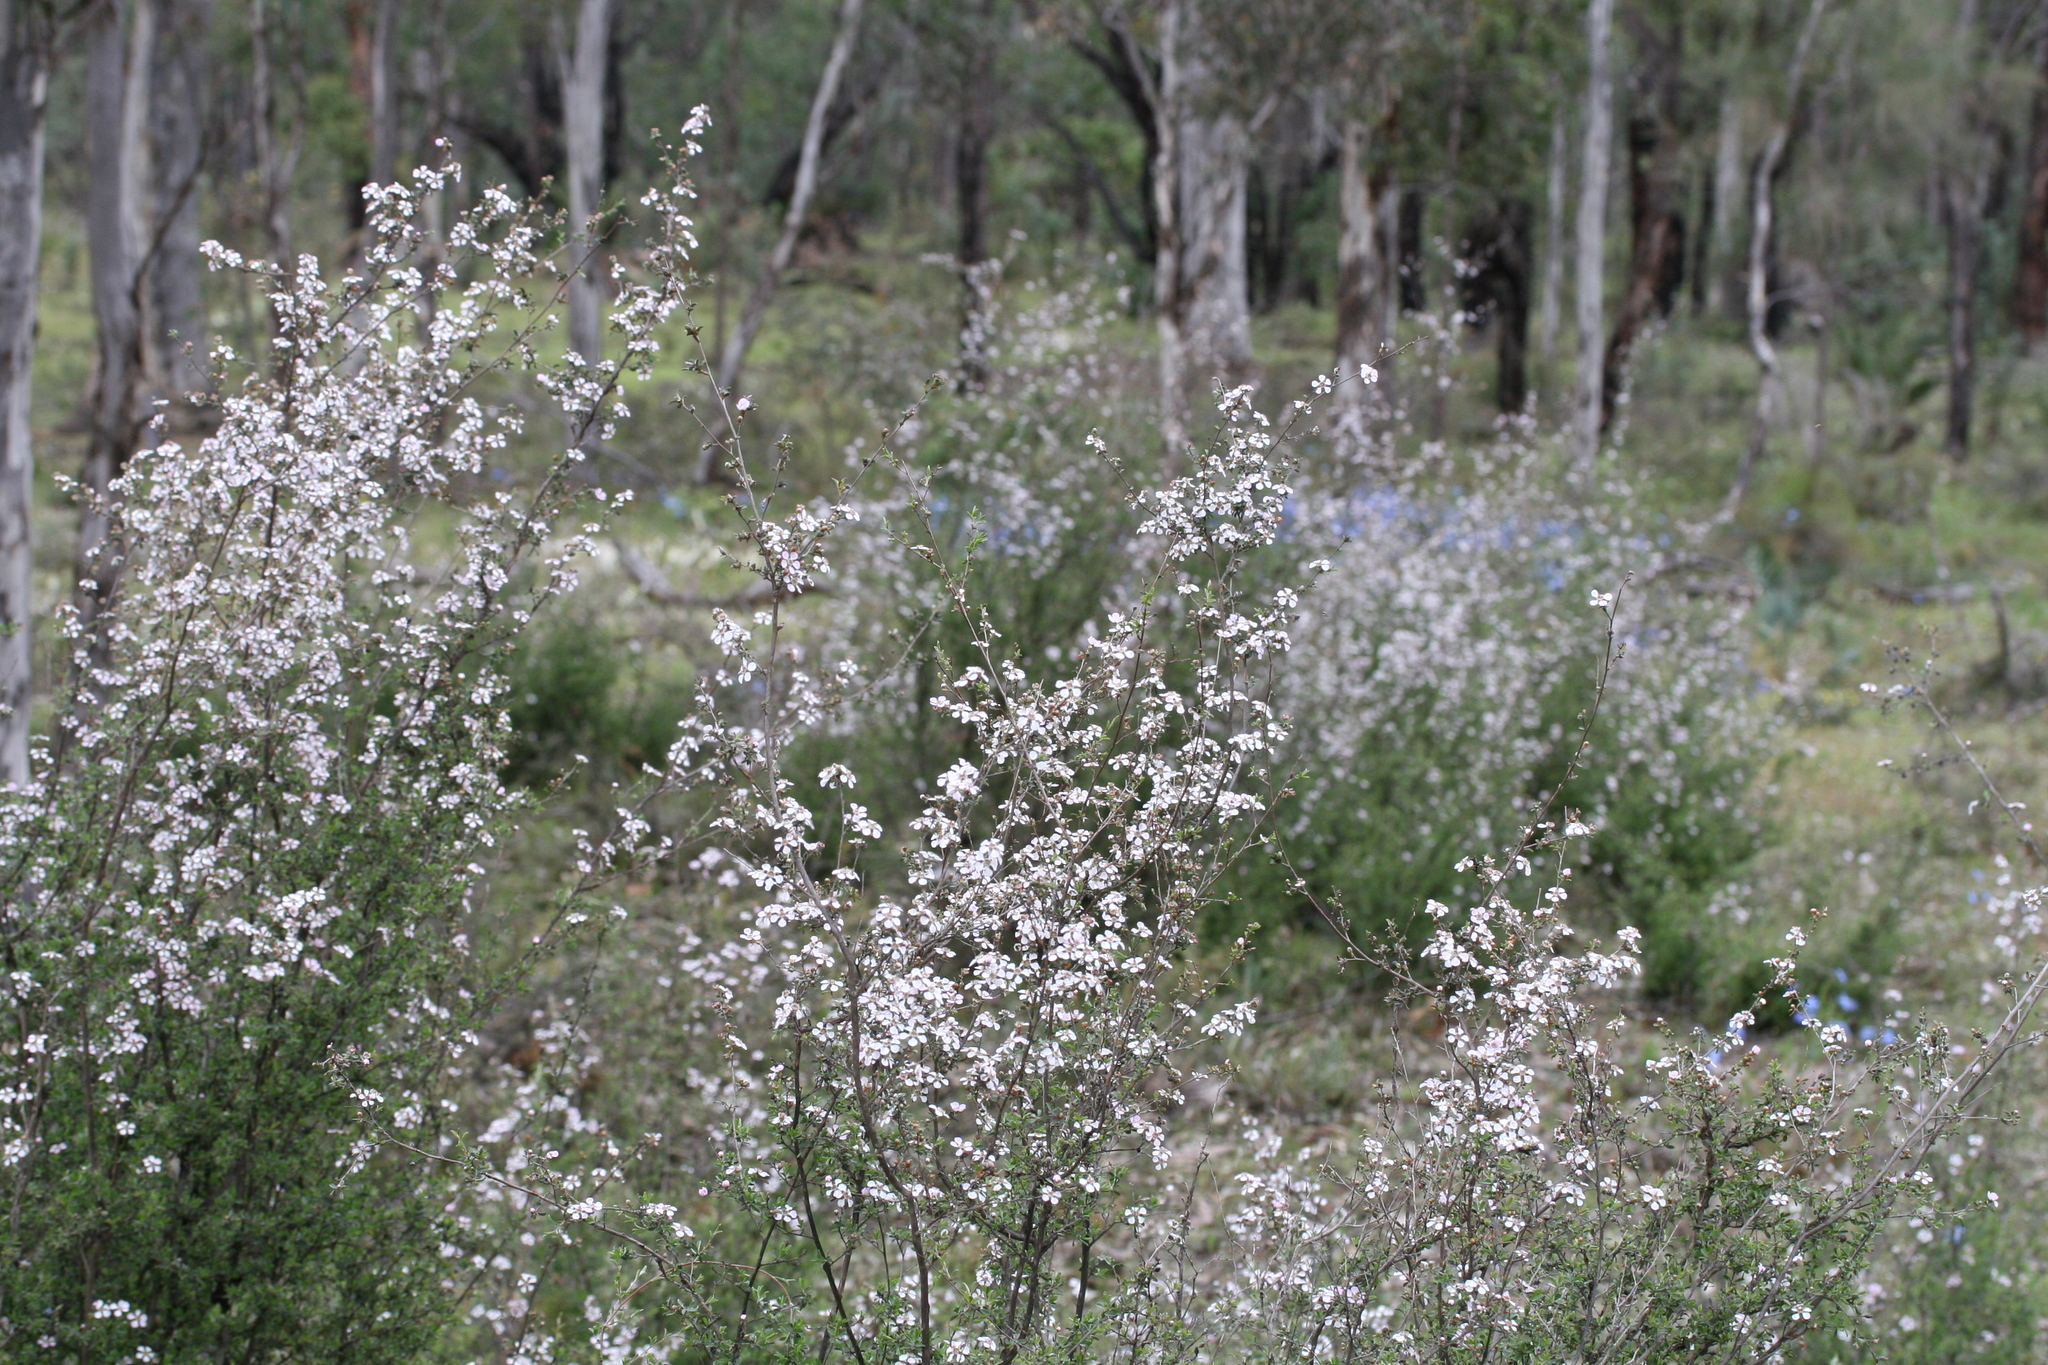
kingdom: Plantae
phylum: Tracheophyta
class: Magnoliopsida
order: Myrtales
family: Myrtaceae
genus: Leptospermum
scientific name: Leptospermum erubescens
